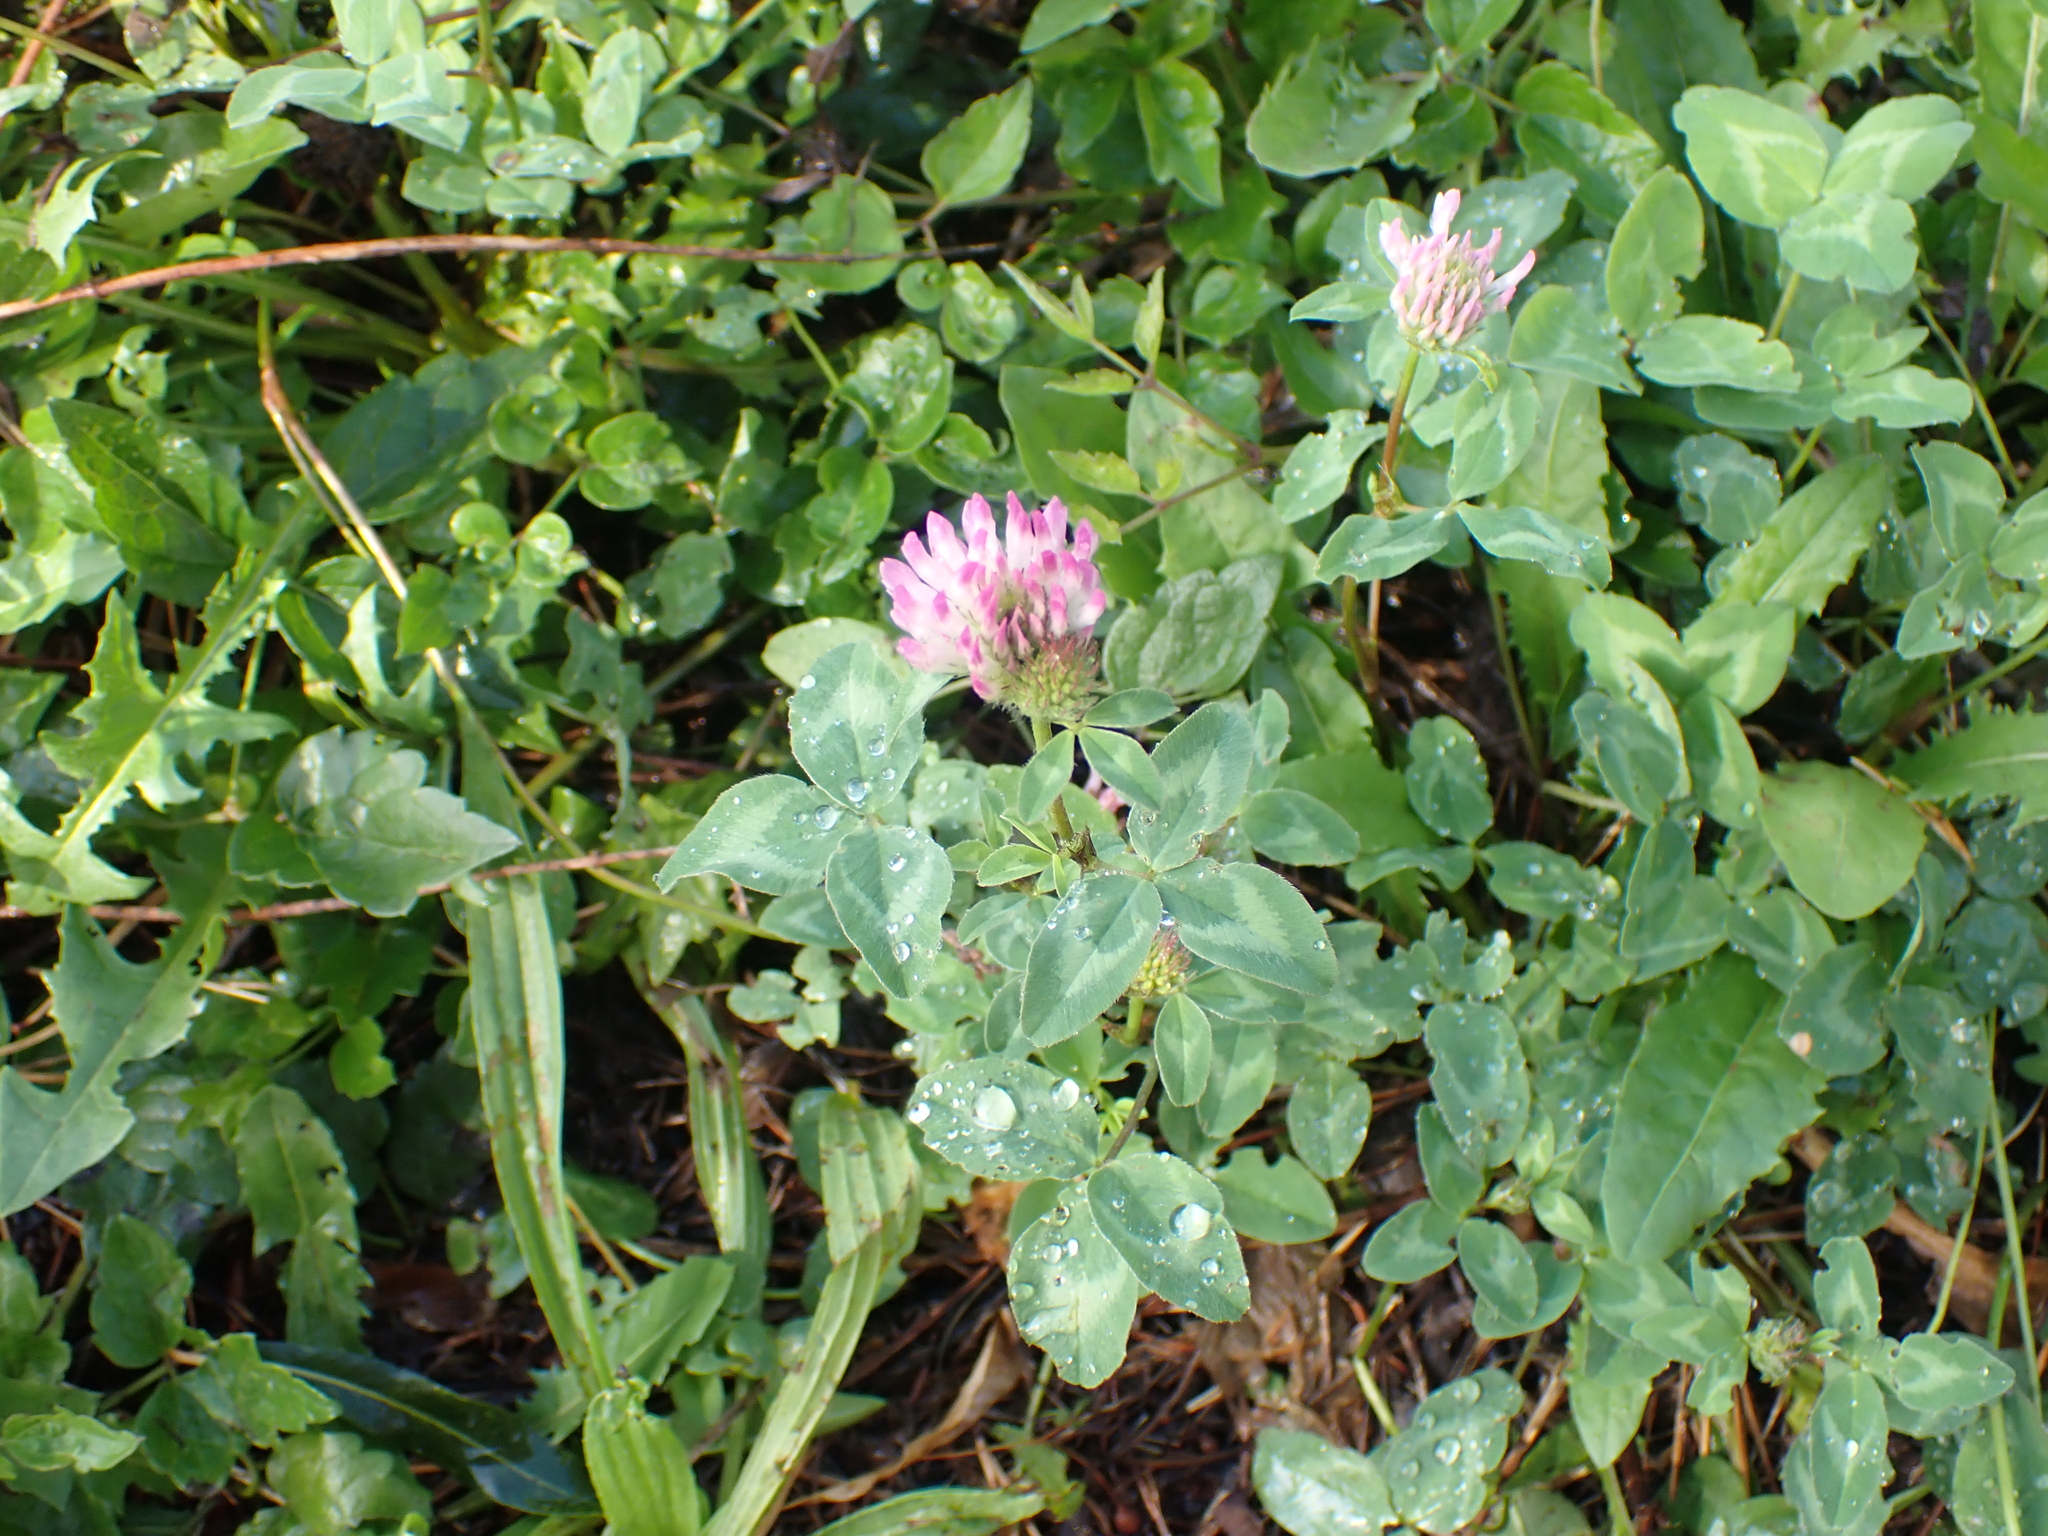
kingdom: Plantae
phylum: Tracheophyta
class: Magnoliopsida
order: Fabales
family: Fabaceae
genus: Trifolium
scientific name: Trifolium pratense
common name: Red clover
